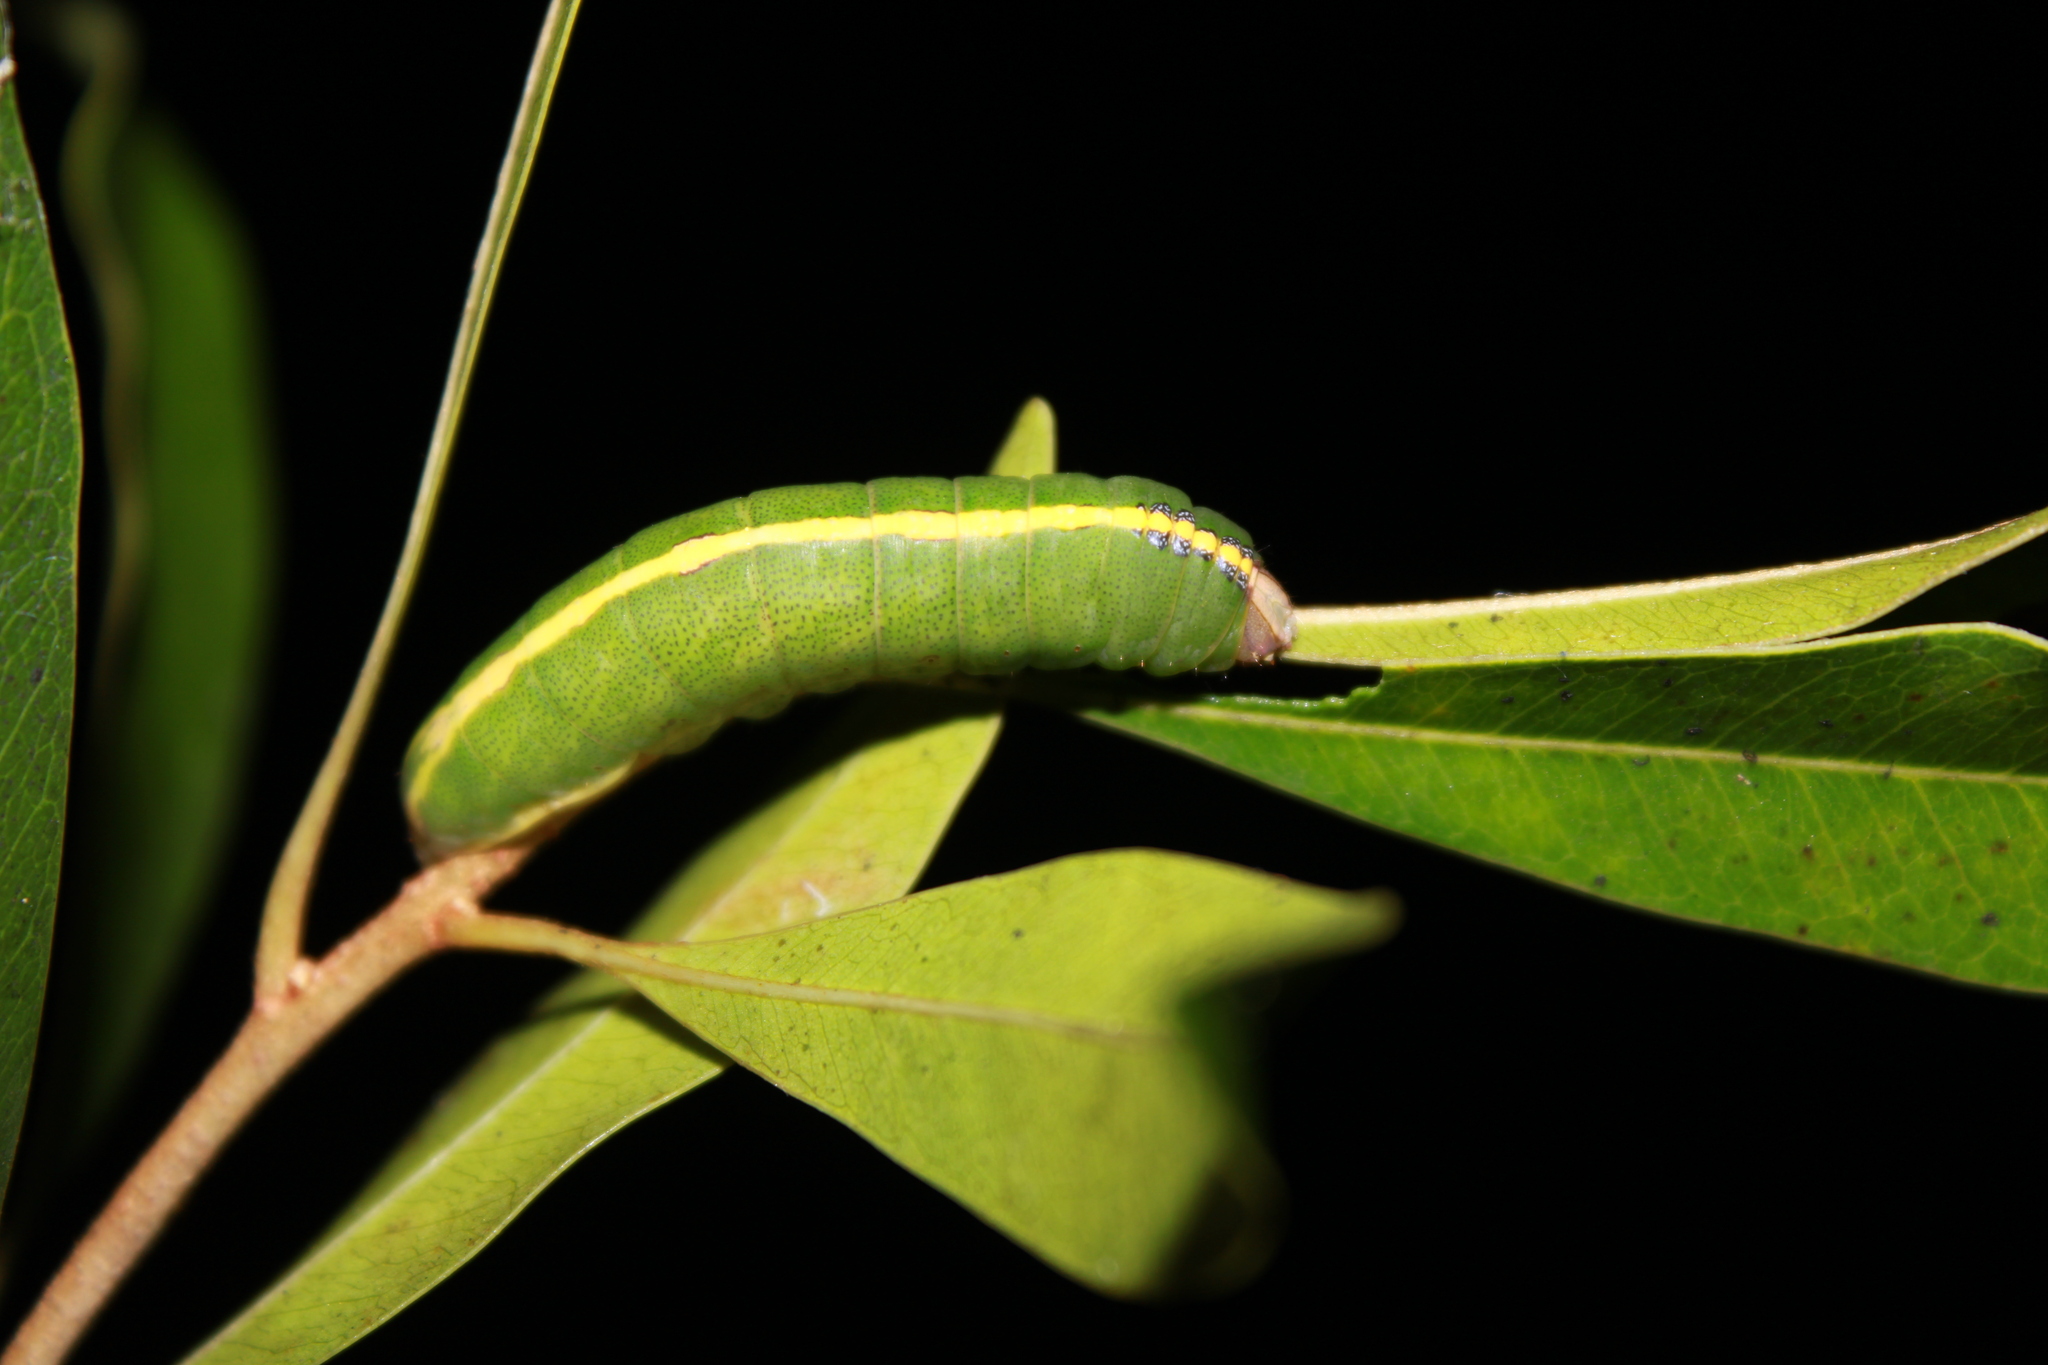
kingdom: Animalia
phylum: Arthropoda
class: Insecta
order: Lepidoptera
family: Notodontidae
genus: Disphragis
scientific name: Disphragis
